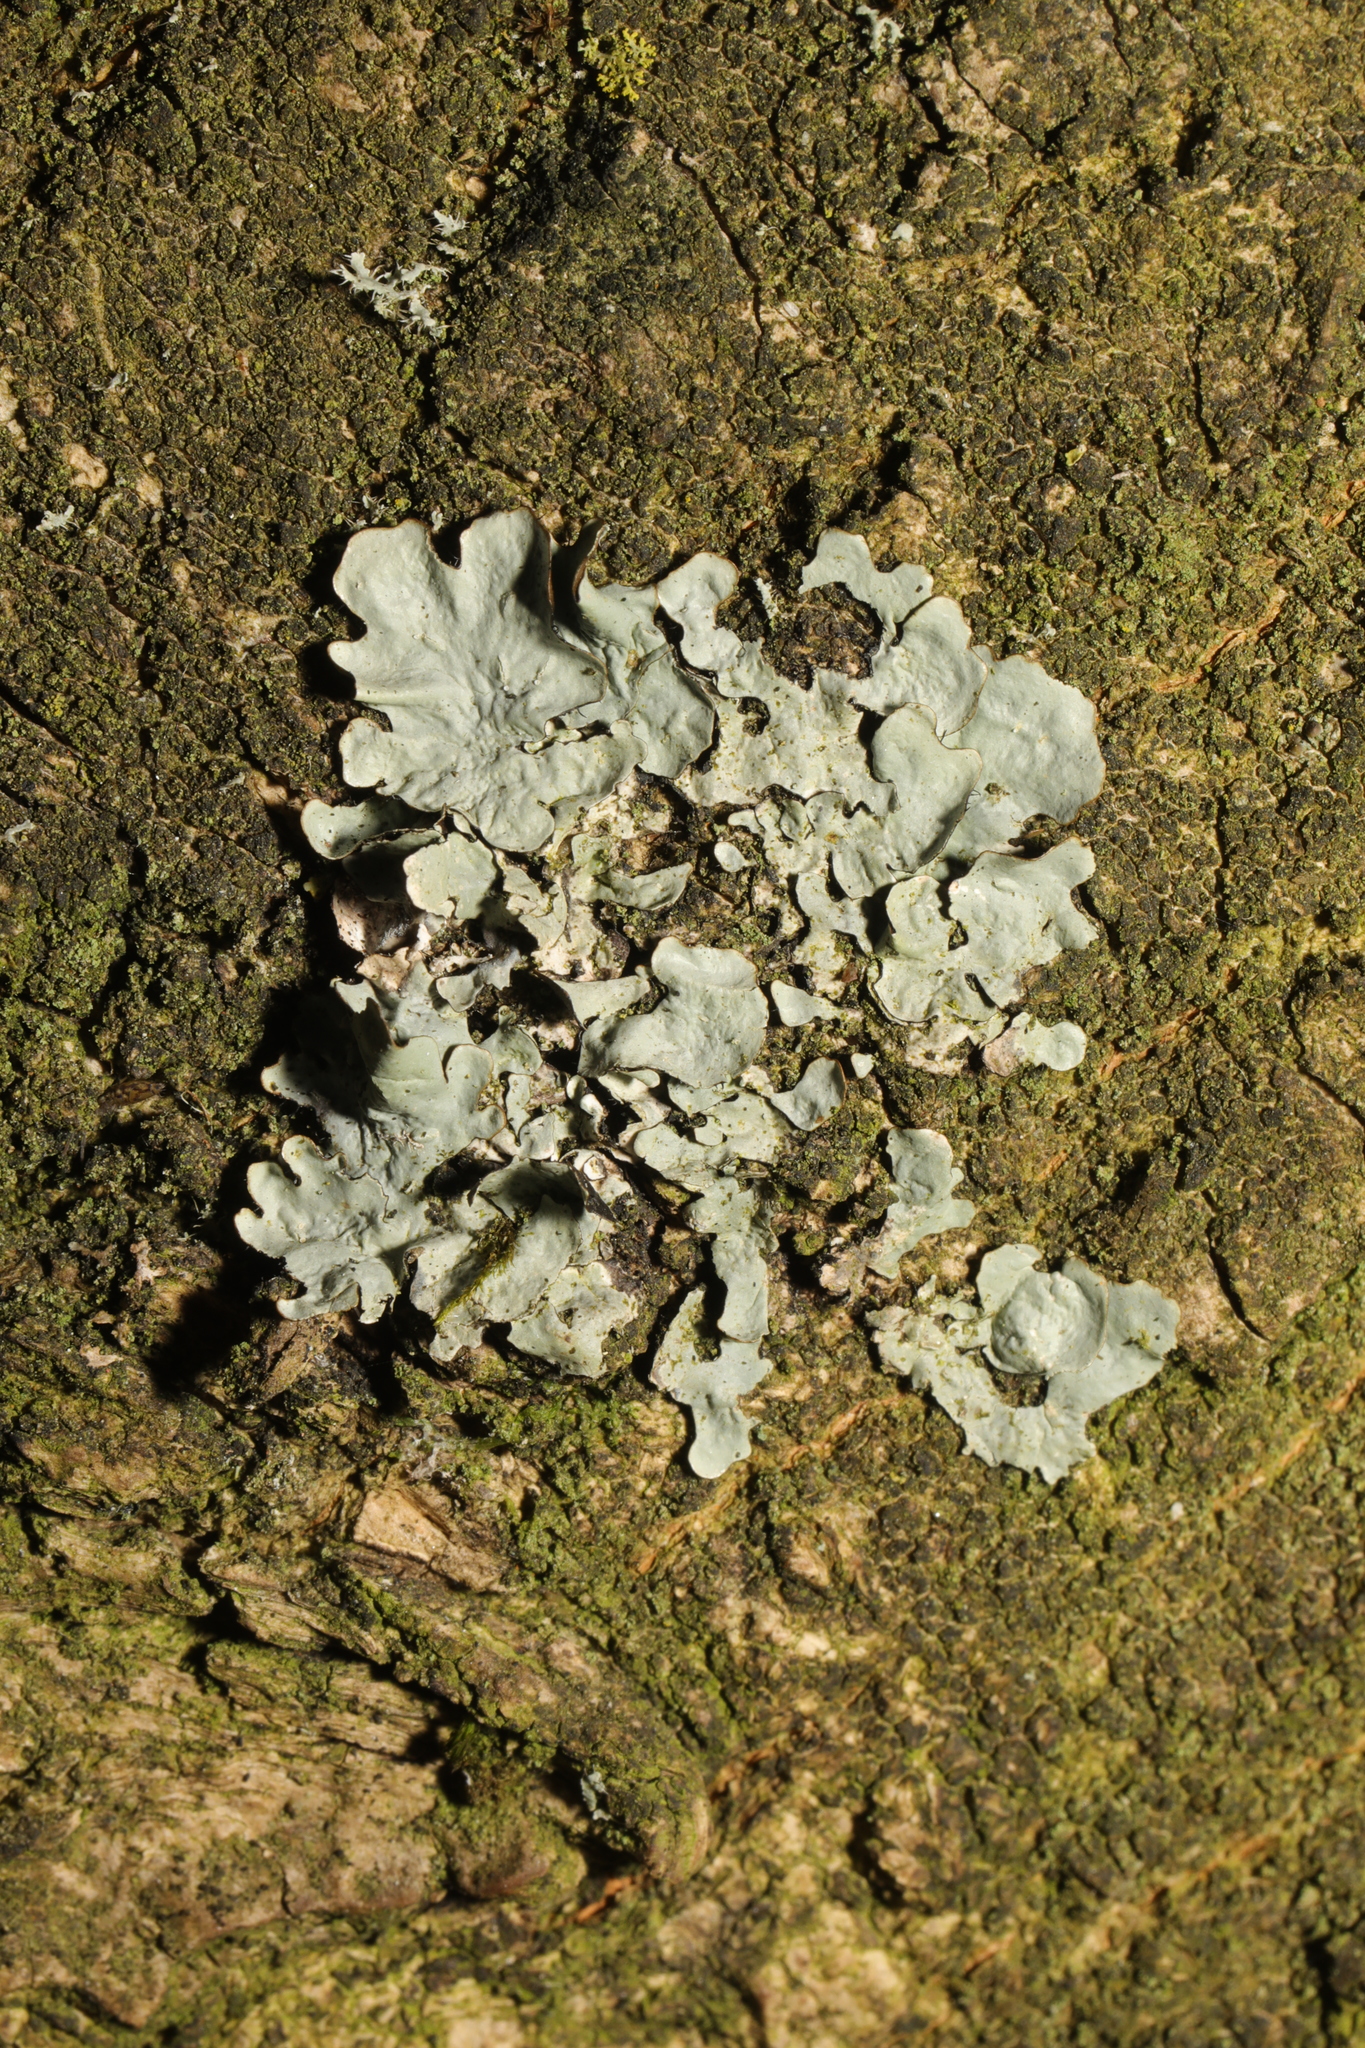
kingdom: Fungi
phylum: Ascomycota
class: Lecanoromycetes
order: Lecanorales
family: Parmeliaceae
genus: Parmotrema
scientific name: Parmotrema perlatum
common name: Black stone flower
